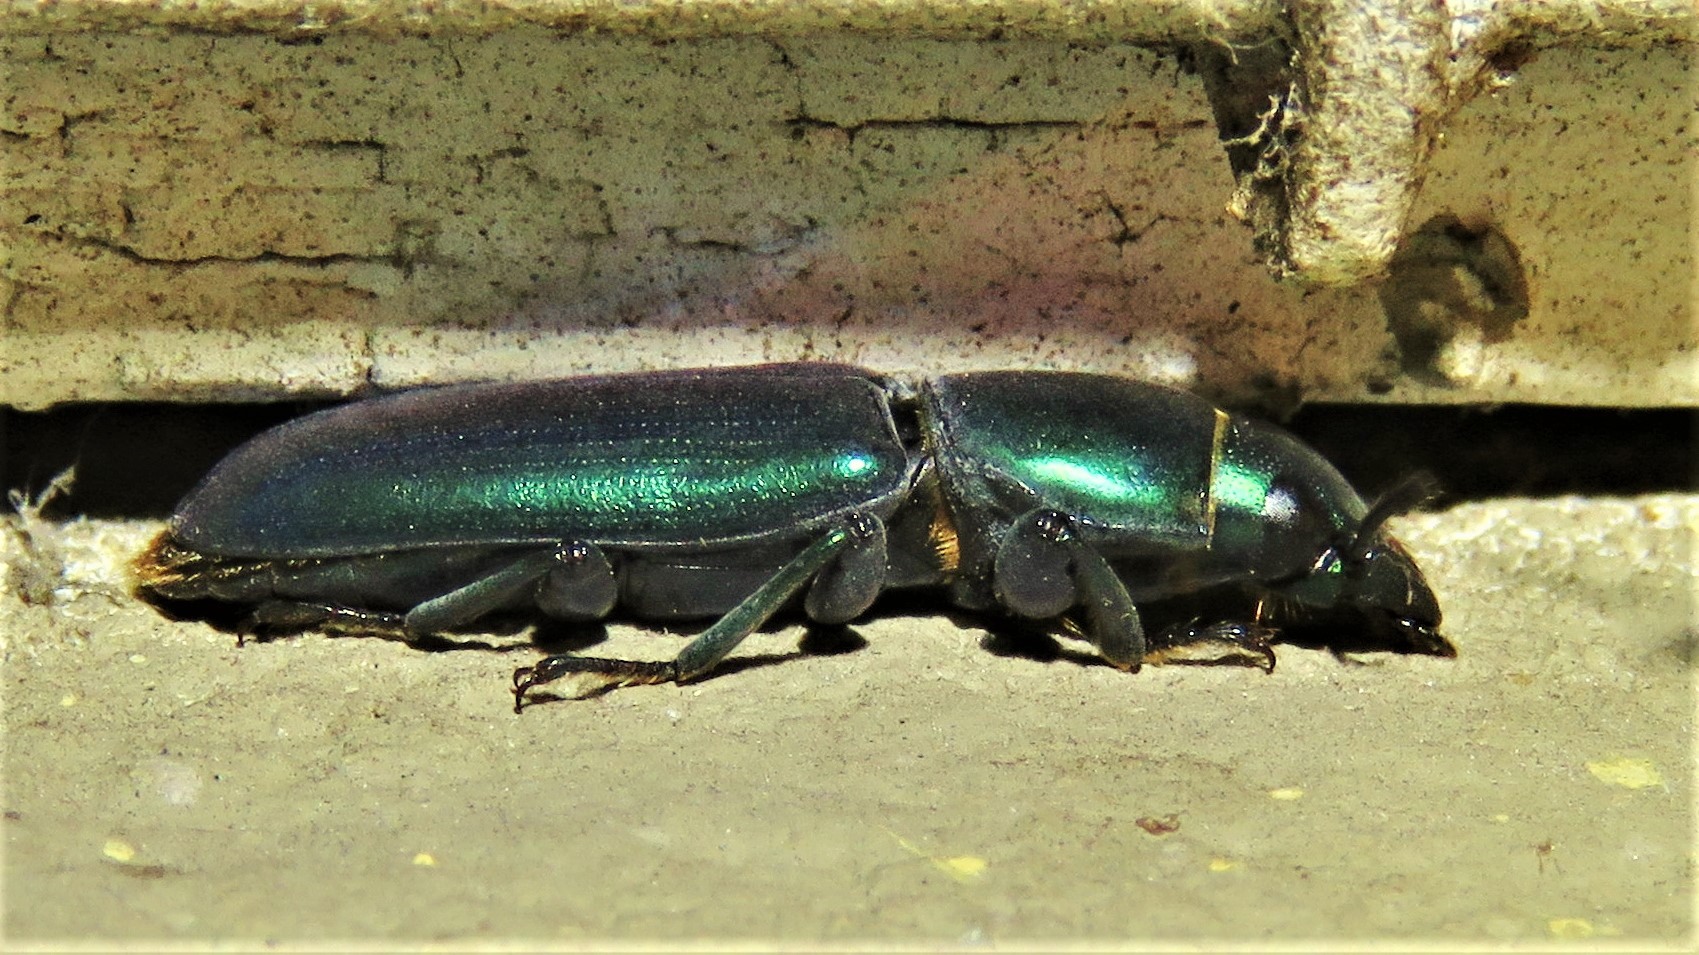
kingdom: Animalia
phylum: Arthropoda
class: Insecta
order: Coleoptera
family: Trogossitidae
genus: Temnochila
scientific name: Temnochila virescens
